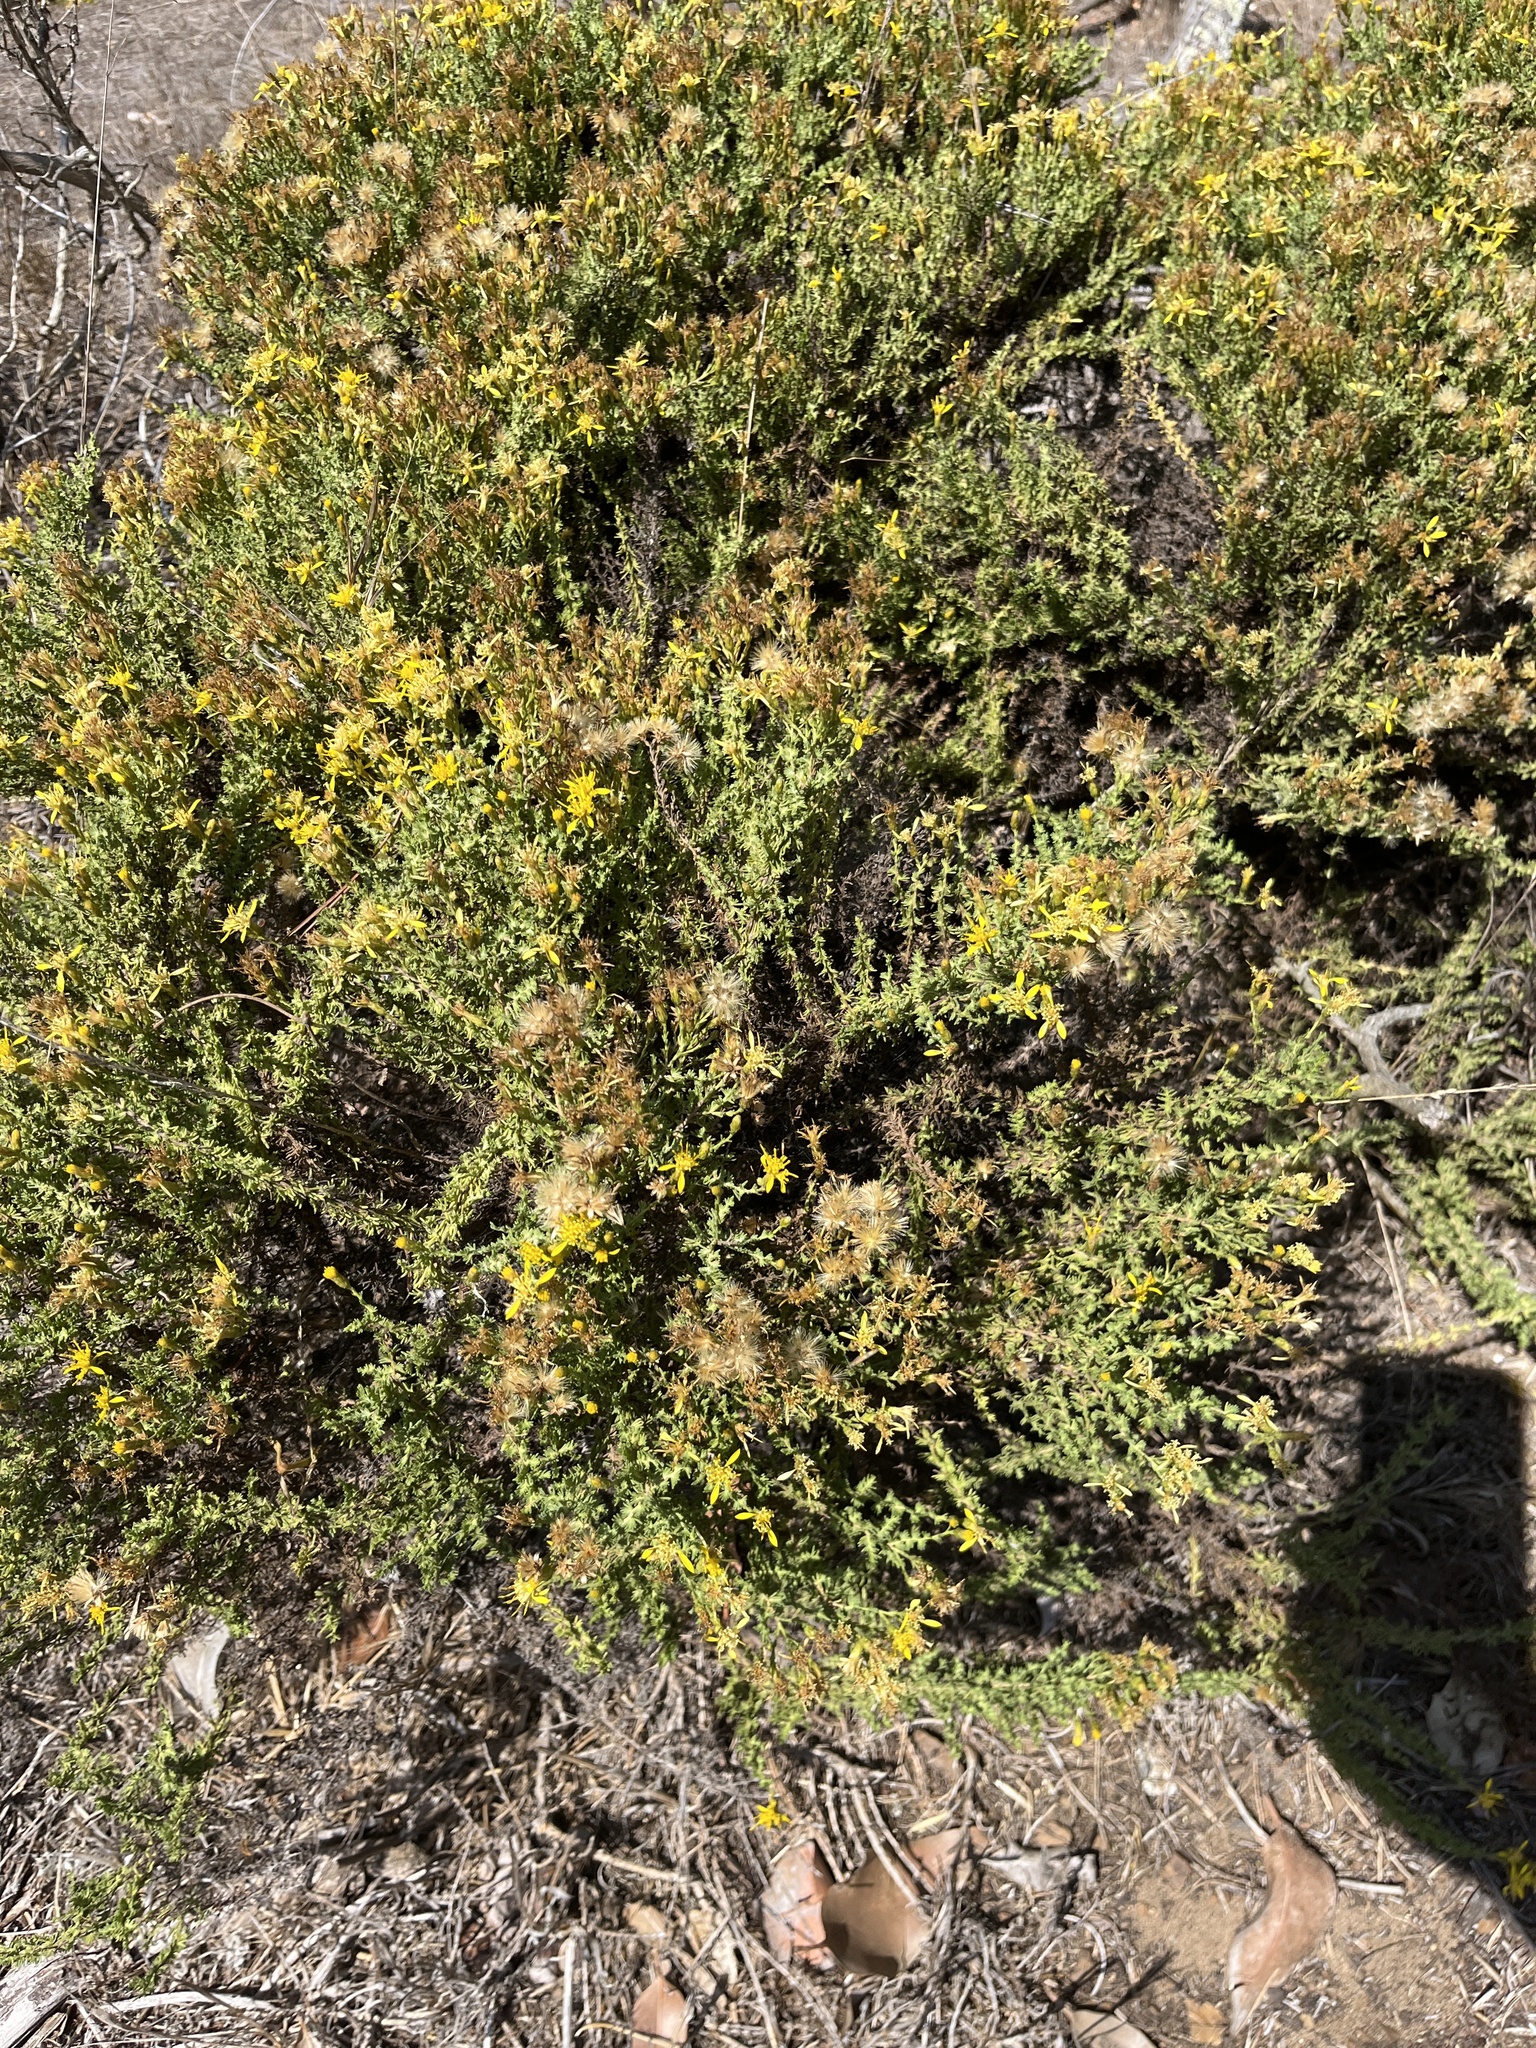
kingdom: Plantae
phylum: Tracheophyta
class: Magnoliopsida
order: Asterales
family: Asteraceae
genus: Ericameria
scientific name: Ericameria ericoides
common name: California goldenbush
